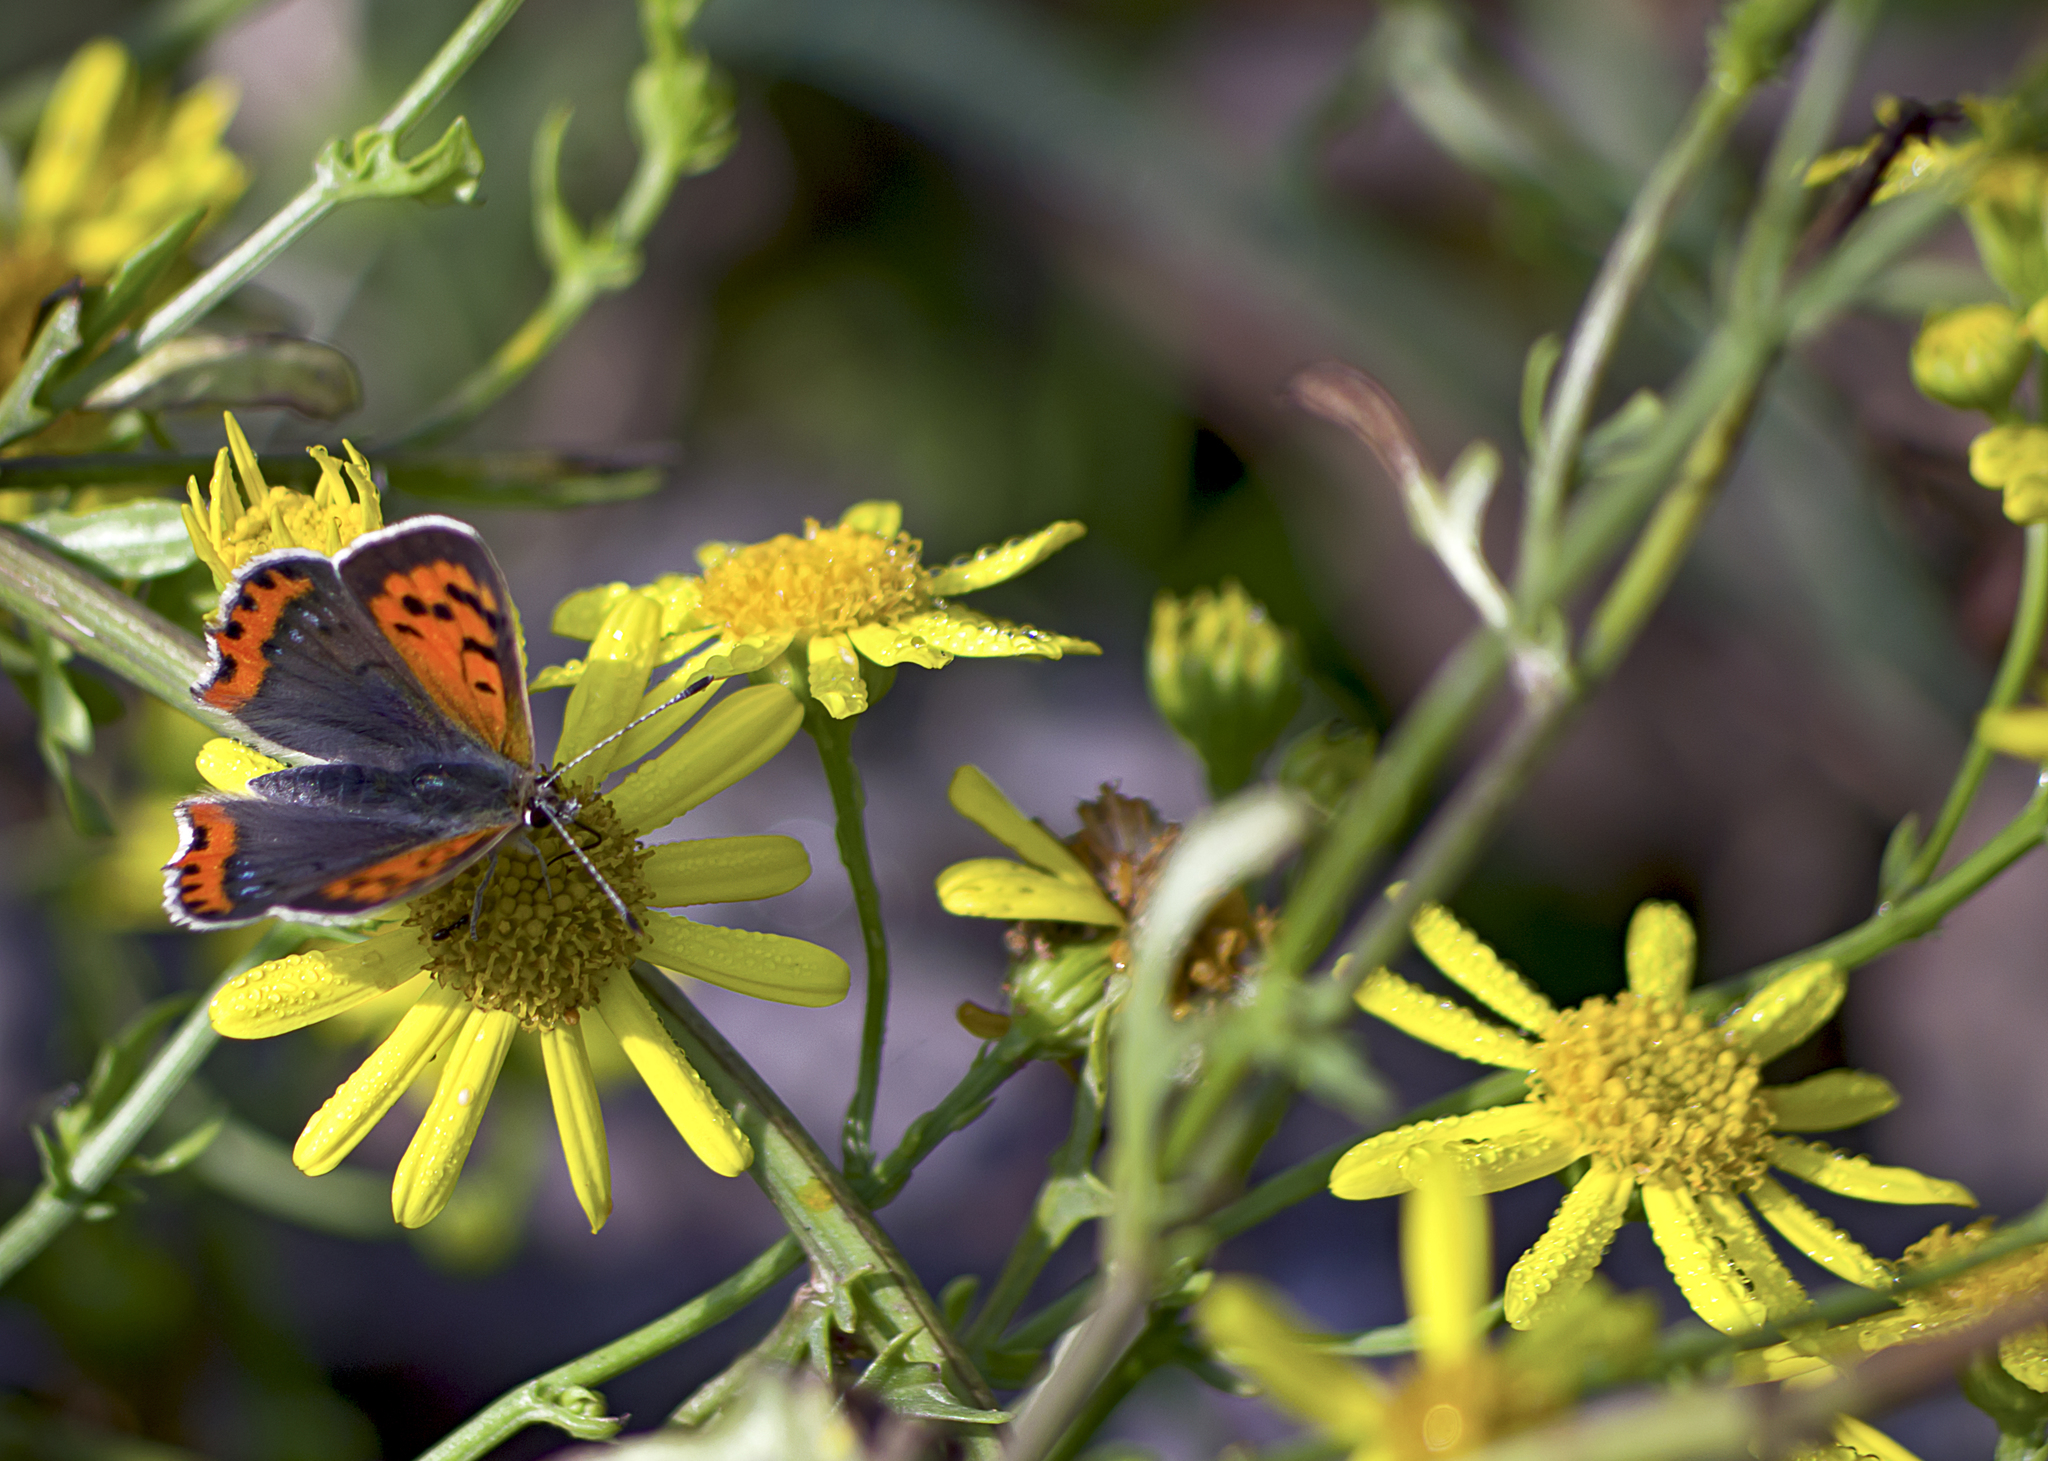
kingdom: Animalia
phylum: Arthropoda
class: Insecta
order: Lepidoptera
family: Lycaenidae
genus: Lycaena
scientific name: Lycaena phlaeas
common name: Small copper
